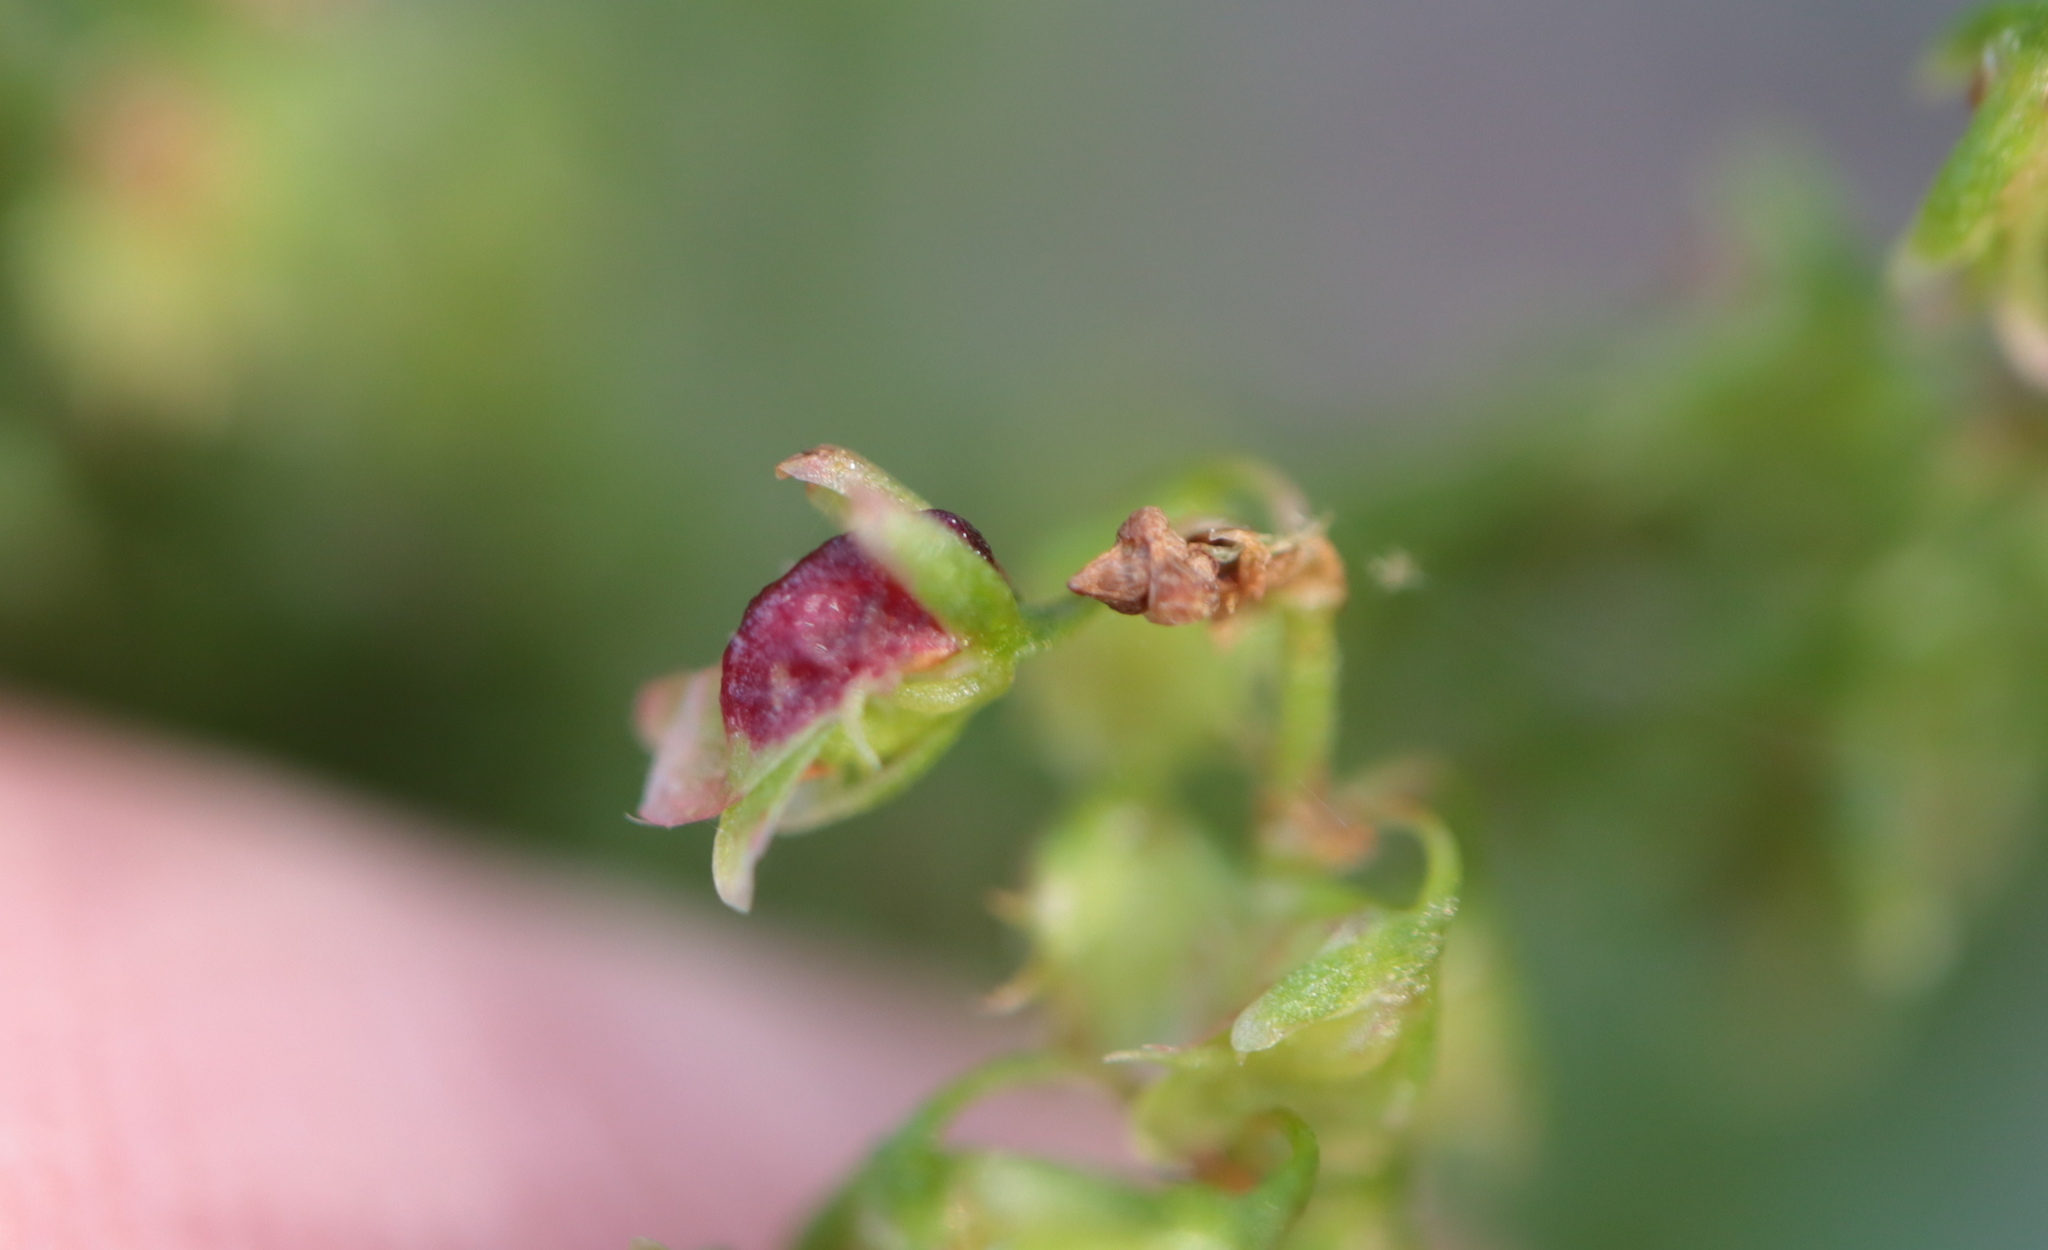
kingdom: Animalia
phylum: Arthropoda
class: Insecta
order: Diptera
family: Cecidomyiidae
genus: Contarinia
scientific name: Contarinia rumicis
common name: Gall midge
